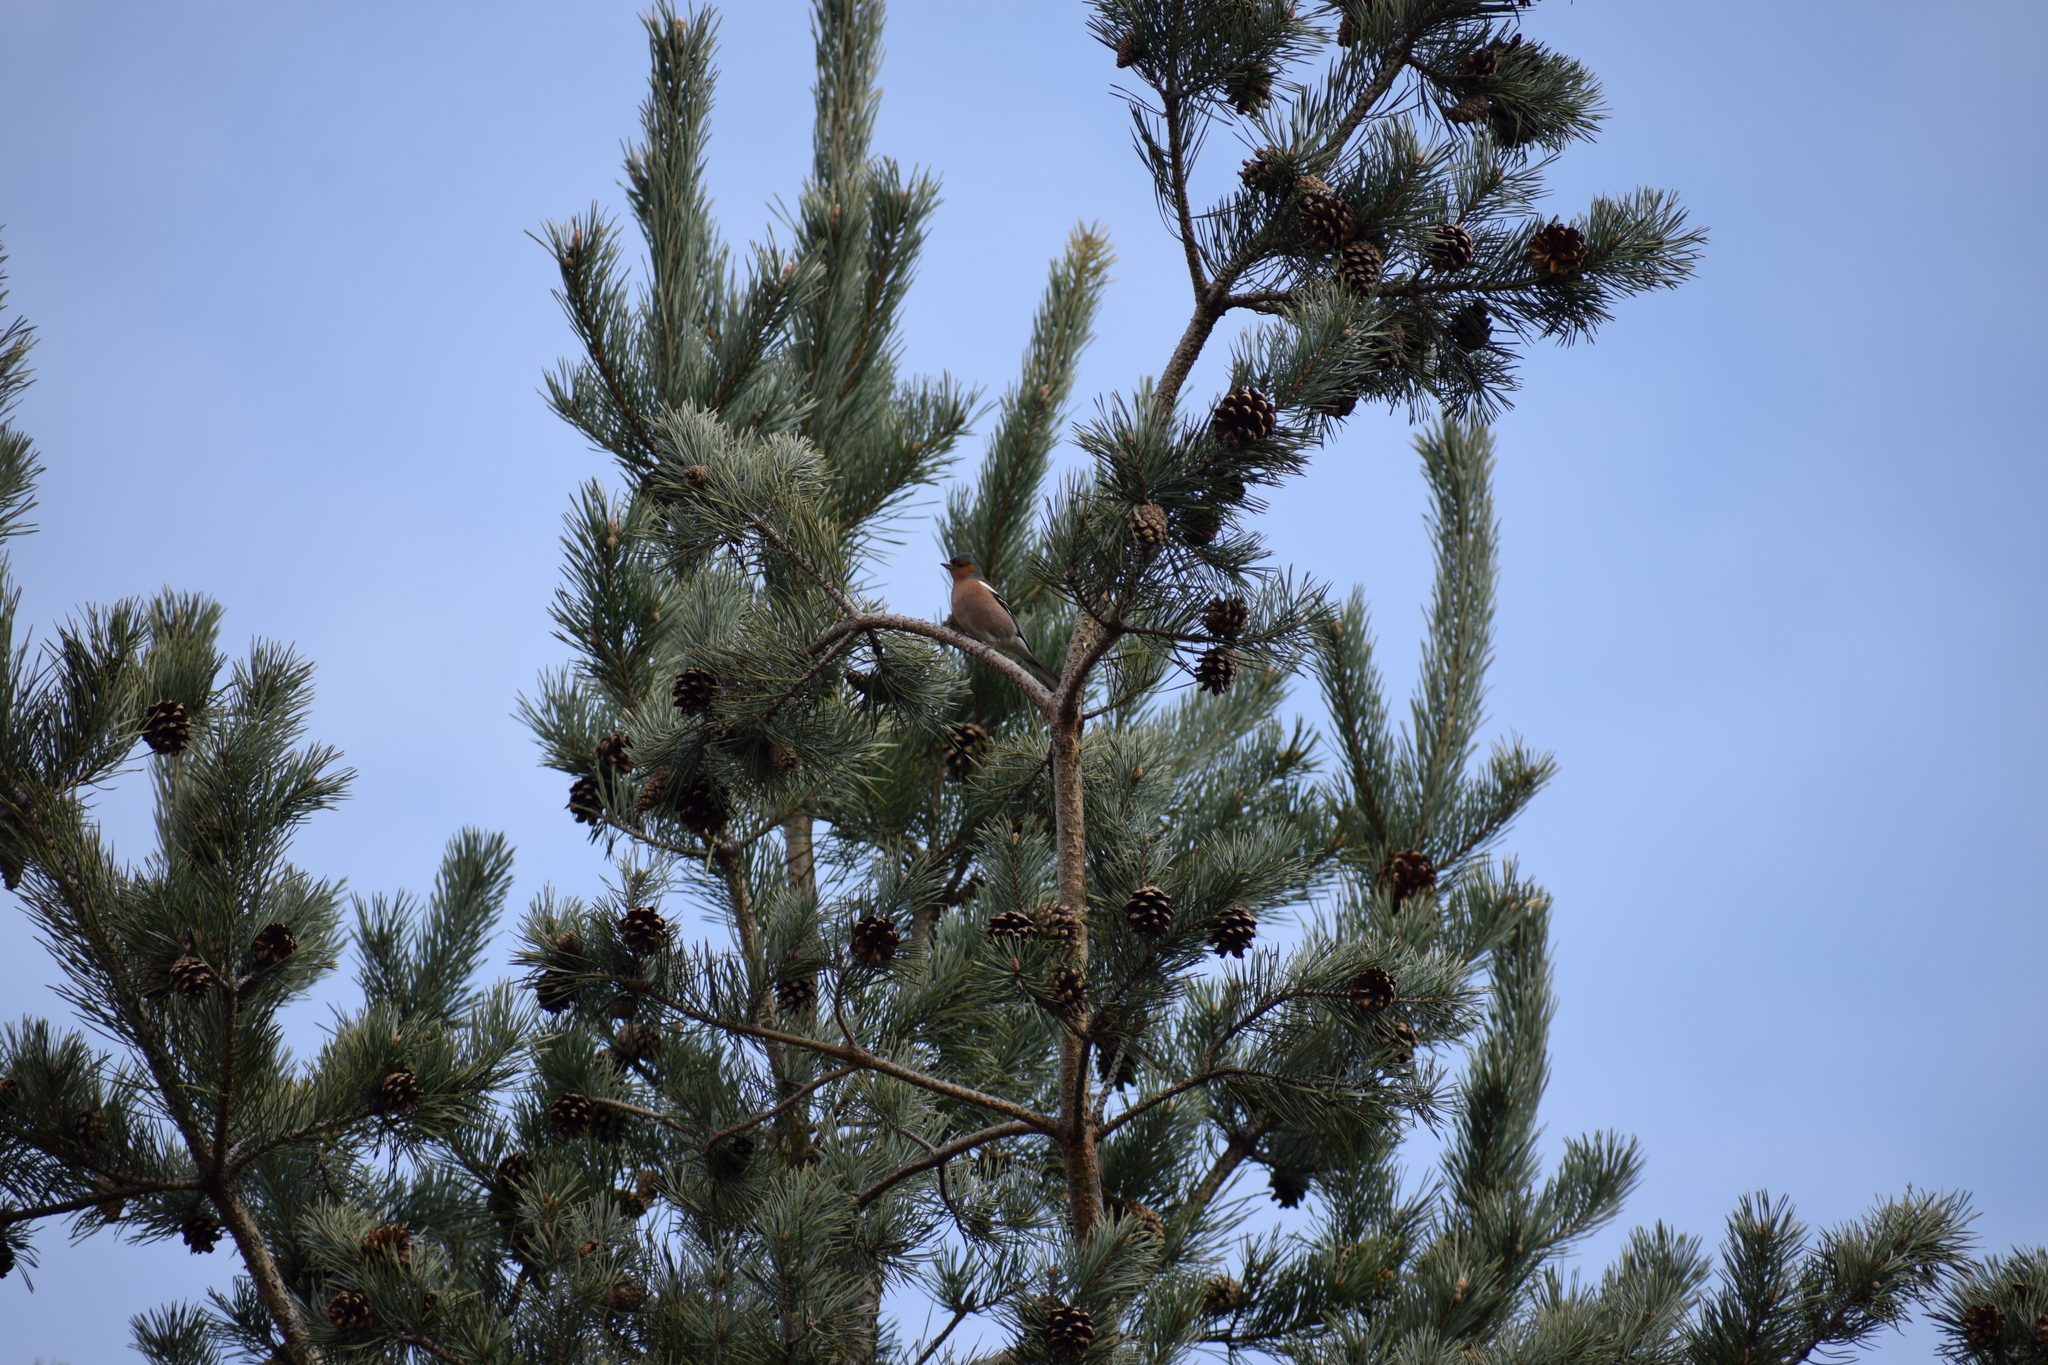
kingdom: Animalia
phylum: Chordata
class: Aves
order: Passeriformes
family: Fringillidae
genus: Fringilla
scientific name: Fringilla coelebs
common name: Common chaffinch
